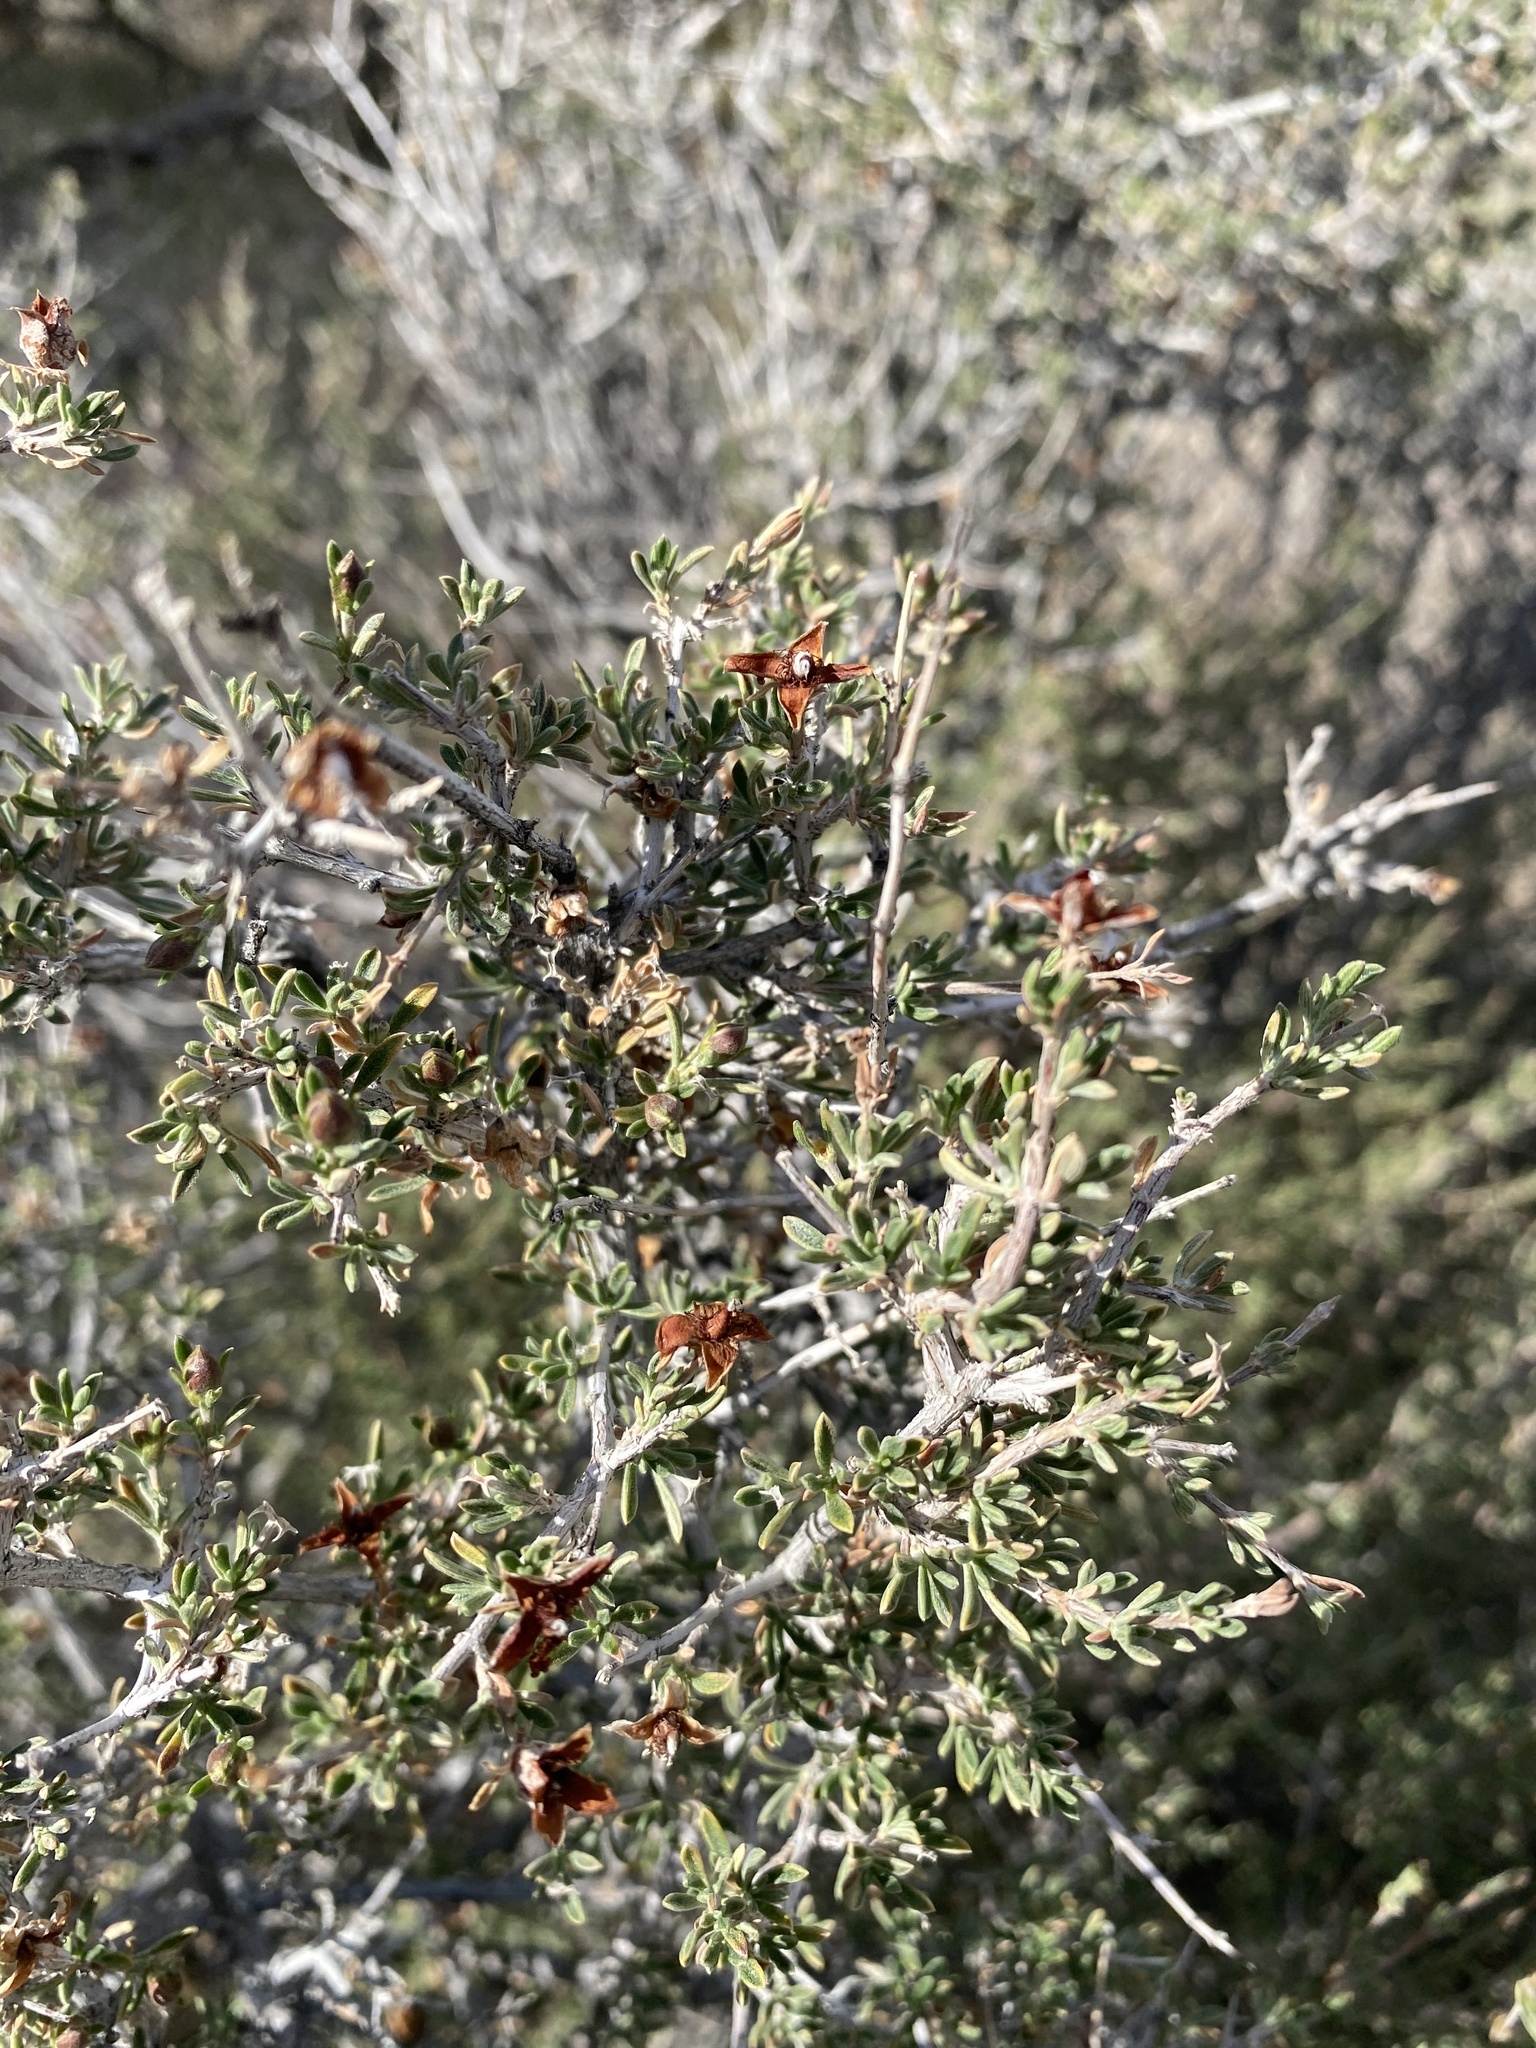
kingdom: Plantae
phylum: Tracheophyta
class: Magnoliopsida
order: Rosales
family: Rosaceae
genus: Coleogyne
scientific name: Coleogyne ramosissima
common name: Blackbrush
